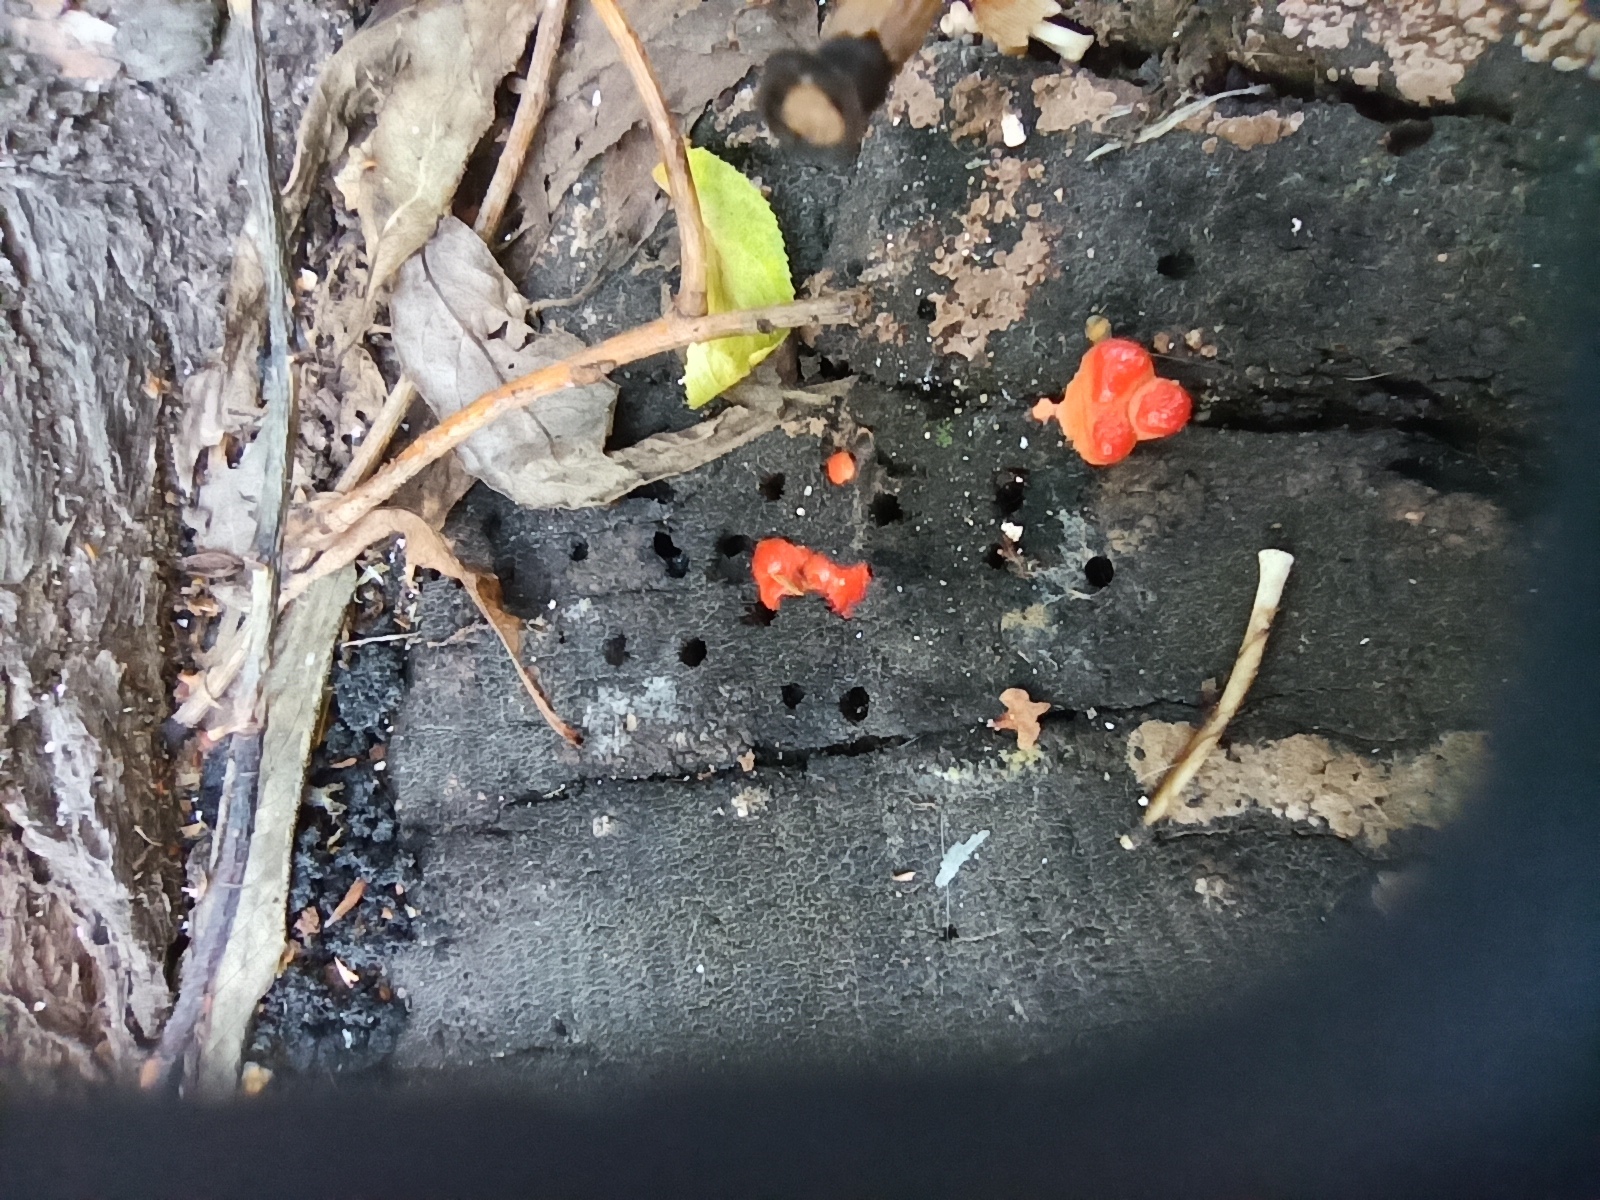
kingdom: Protozoa
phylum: Mycetozoa
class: Myxomycetes
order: Cribrariales
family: Tubiferaceae
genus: Lycogala
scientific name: Lycogala epidendrum
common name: Wolf's milk
